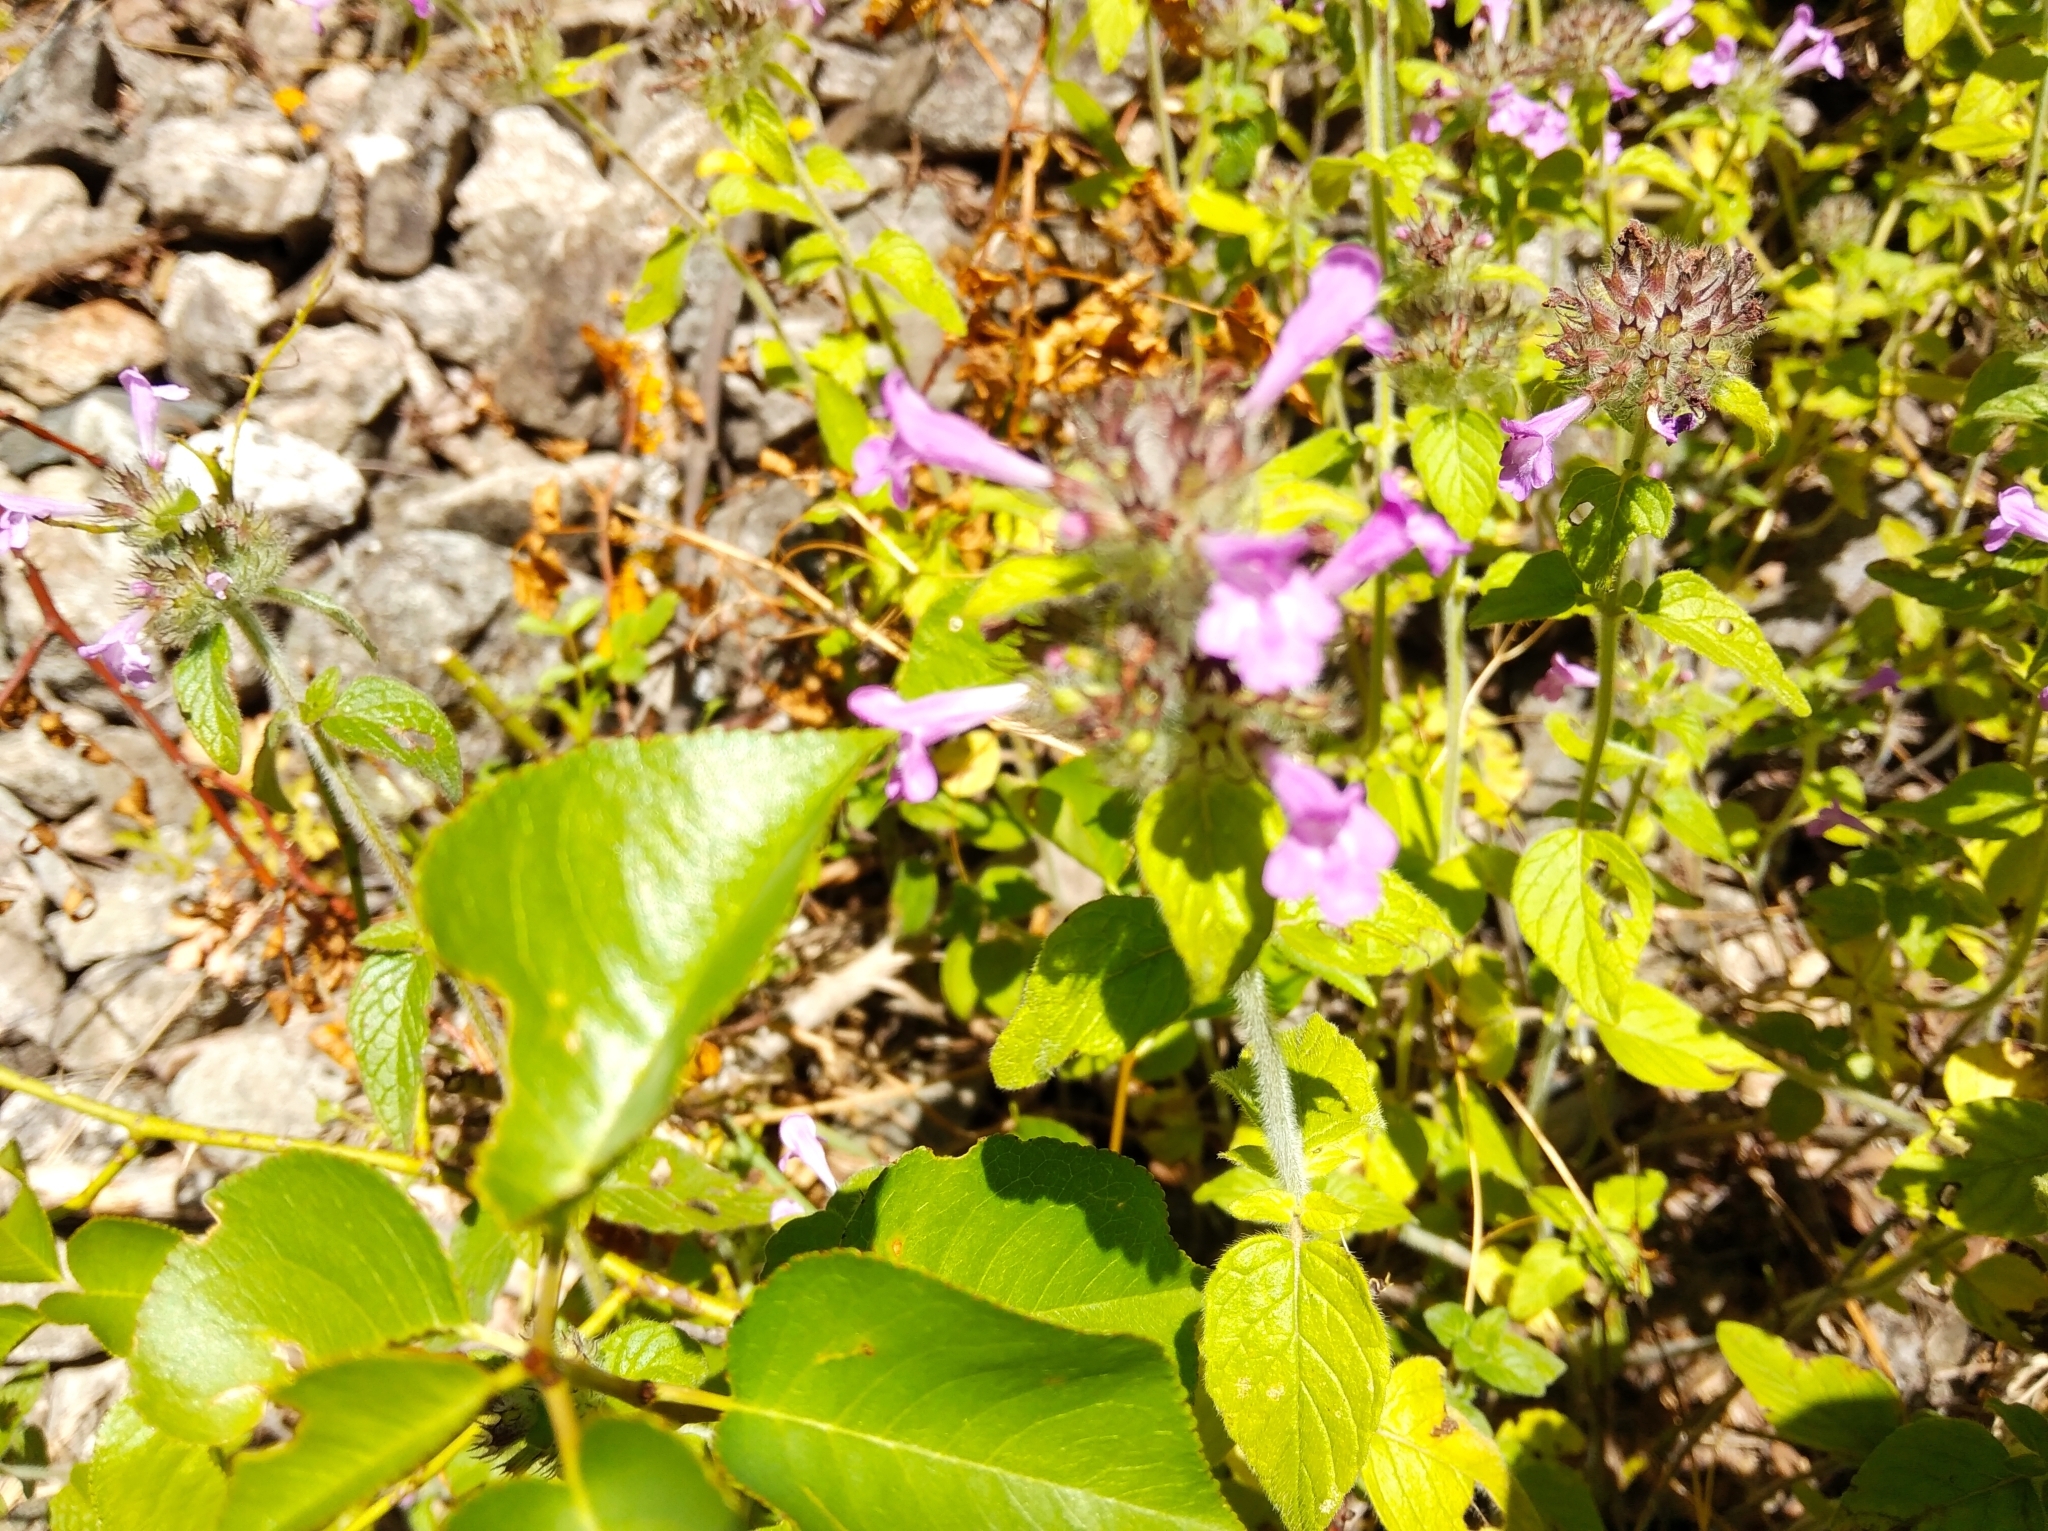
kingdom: Plantae
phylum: Tracheophyta
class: Magnoliopsida
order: Lamiales
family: Lamiaceae
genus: Clinopodium
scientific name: Clinopodium vulgare
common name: Wild basil
